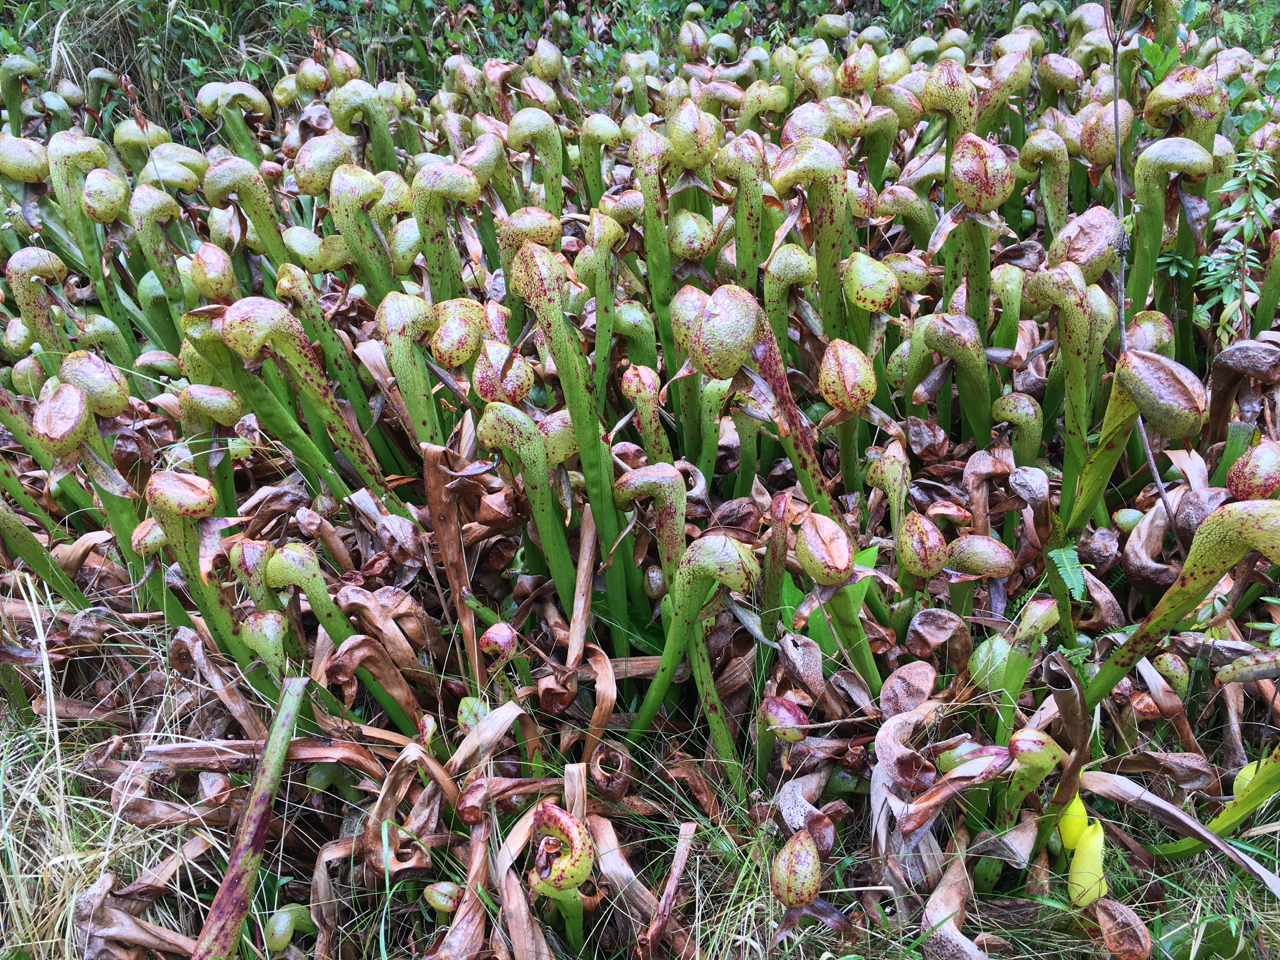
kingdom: Plantae
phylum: Tracheophyta
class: Magnoliopsida
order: Ericales
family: Sarraceniaceae
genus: Darlingtonia
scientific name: Darlingtonia californica
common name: California pitcher plant
